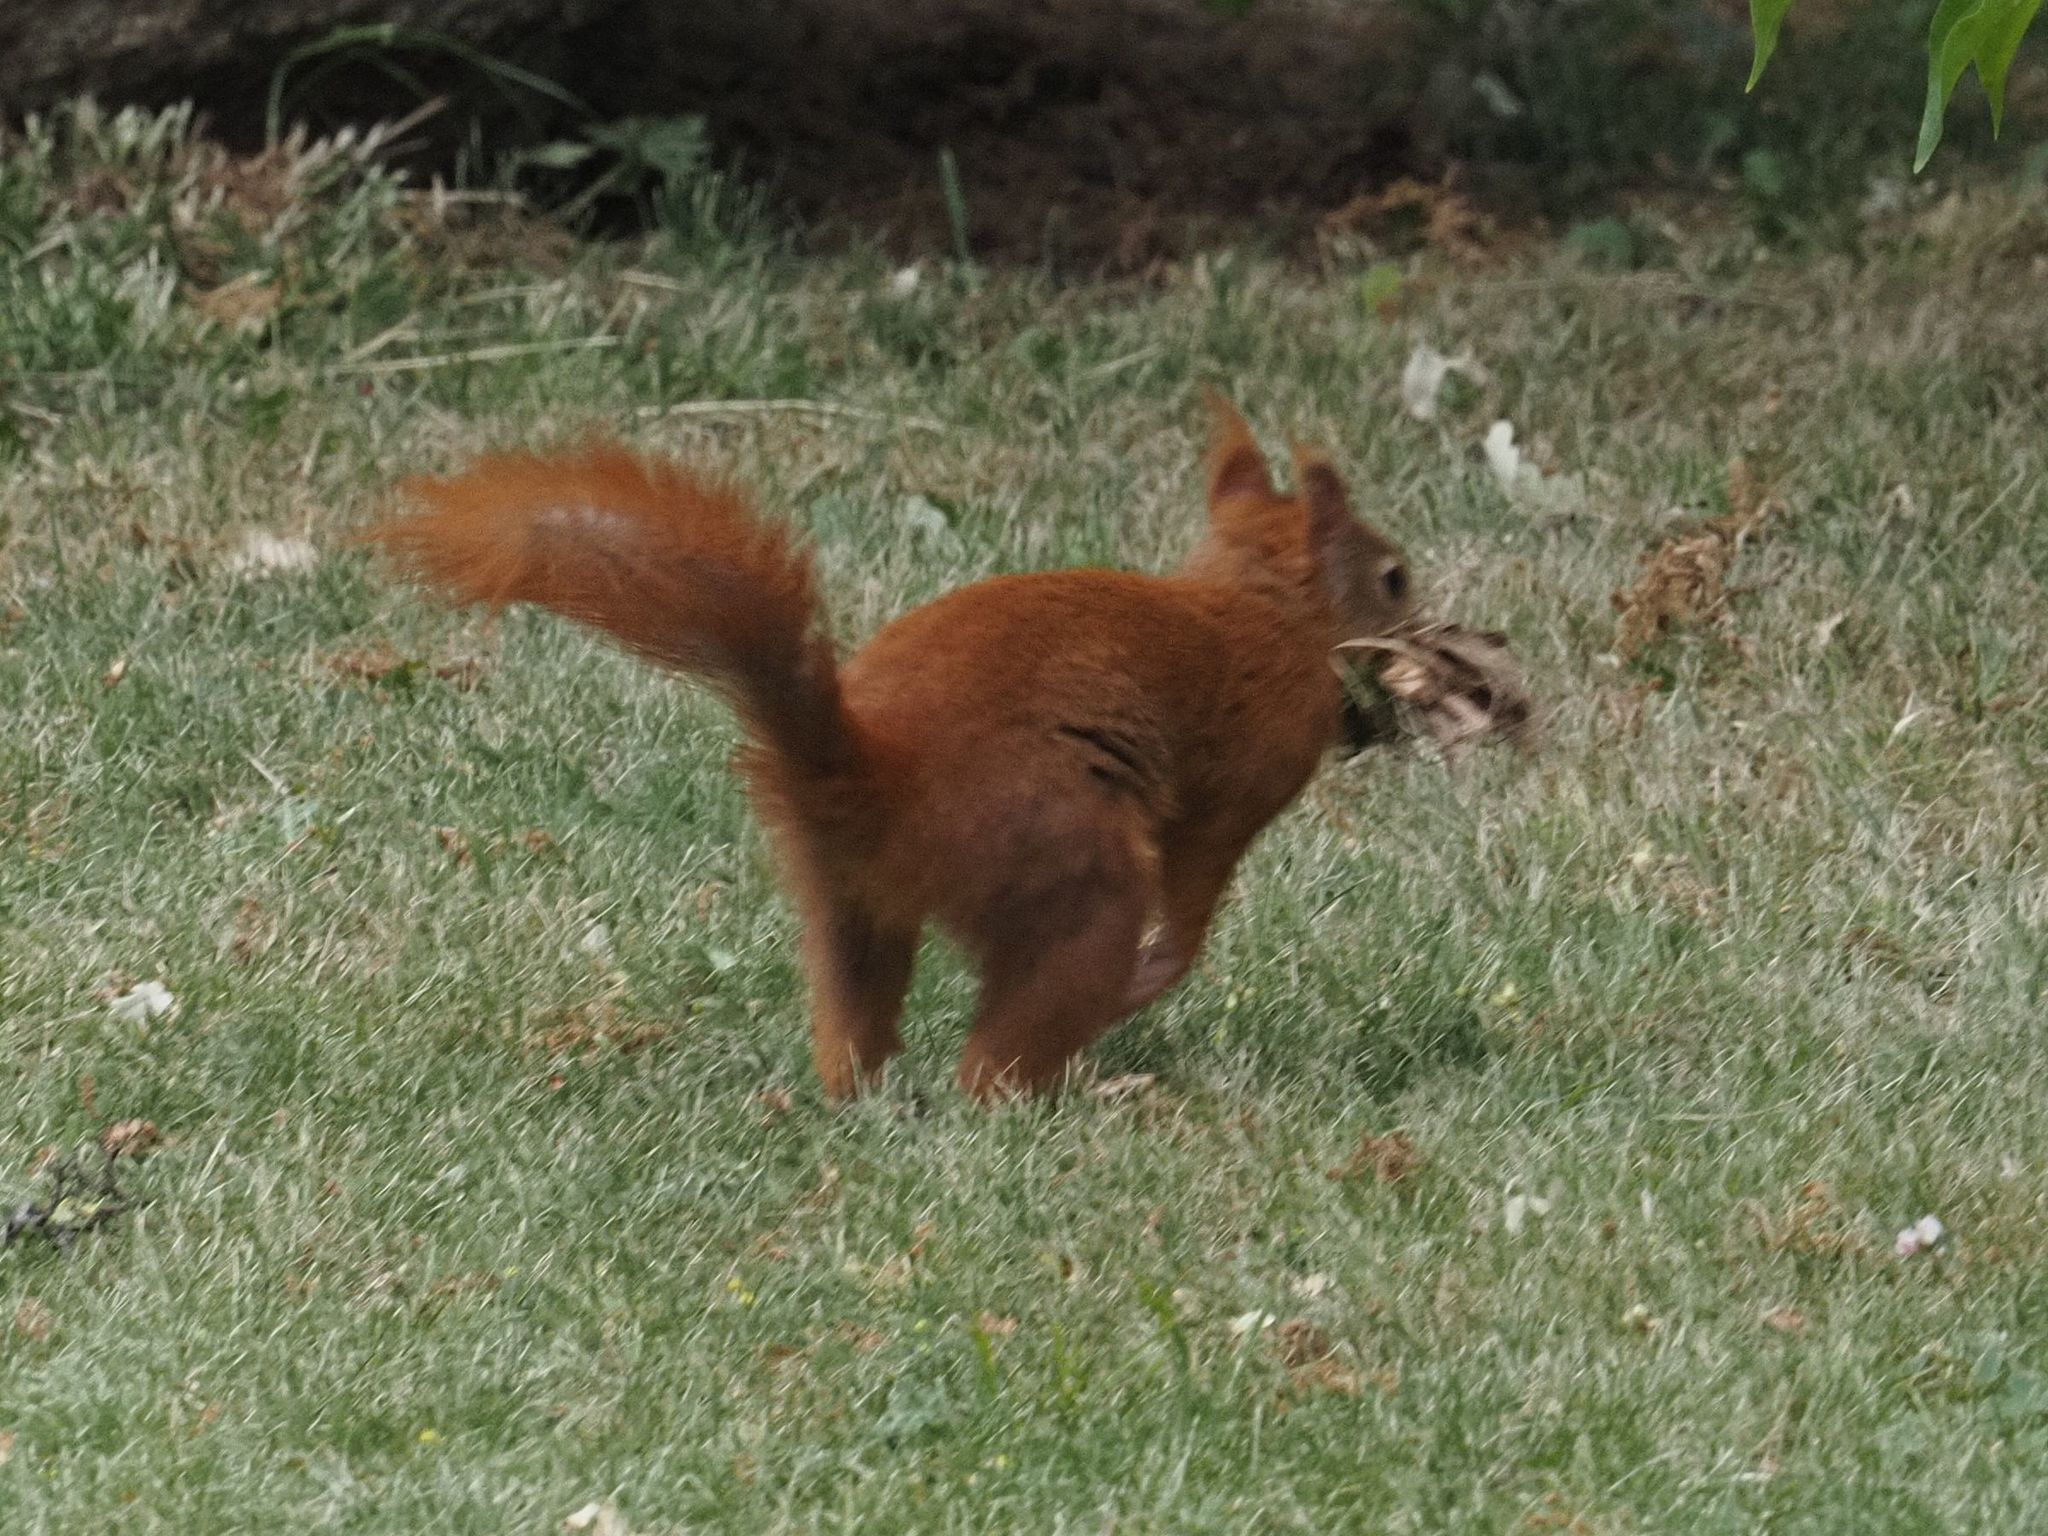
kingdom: Animalia
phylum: Chordata
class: Mammalia
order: Rodentia
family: Sciuridae
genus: Sciurus
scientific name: Sciurus vulgaris
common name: Eurasian red squirrel
